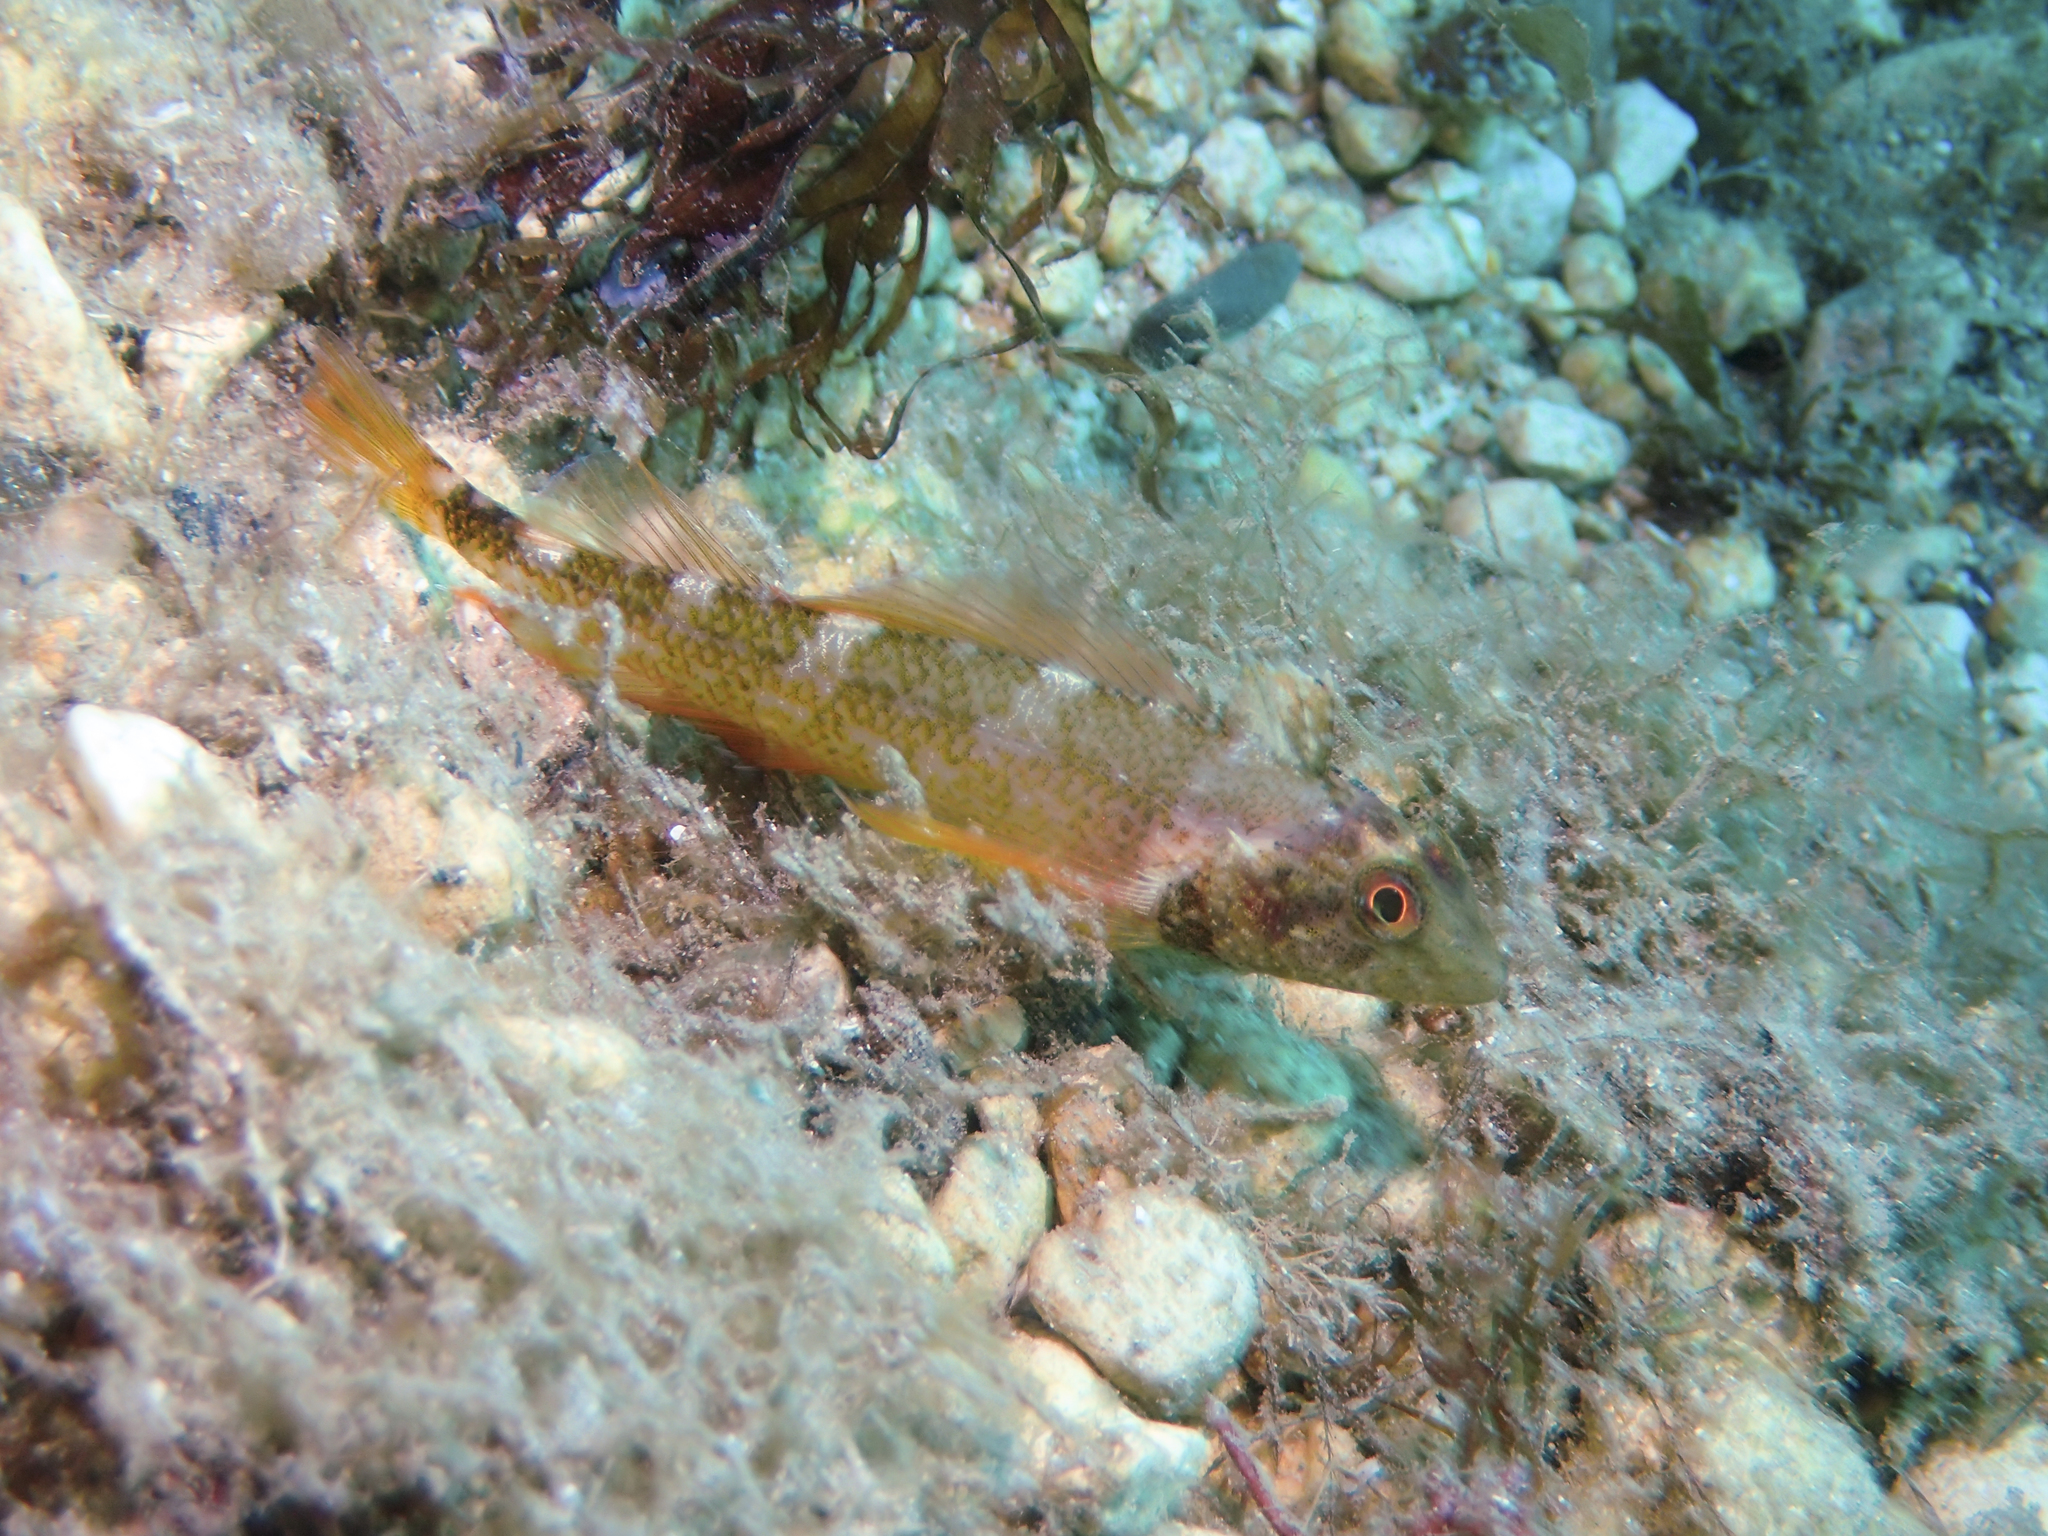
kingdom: Animalia
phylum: Chordata
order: Perciformes
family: Tripterygiidae
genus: Tripterygion
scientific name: Tripterygion delaisi
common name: Black-face blenny
